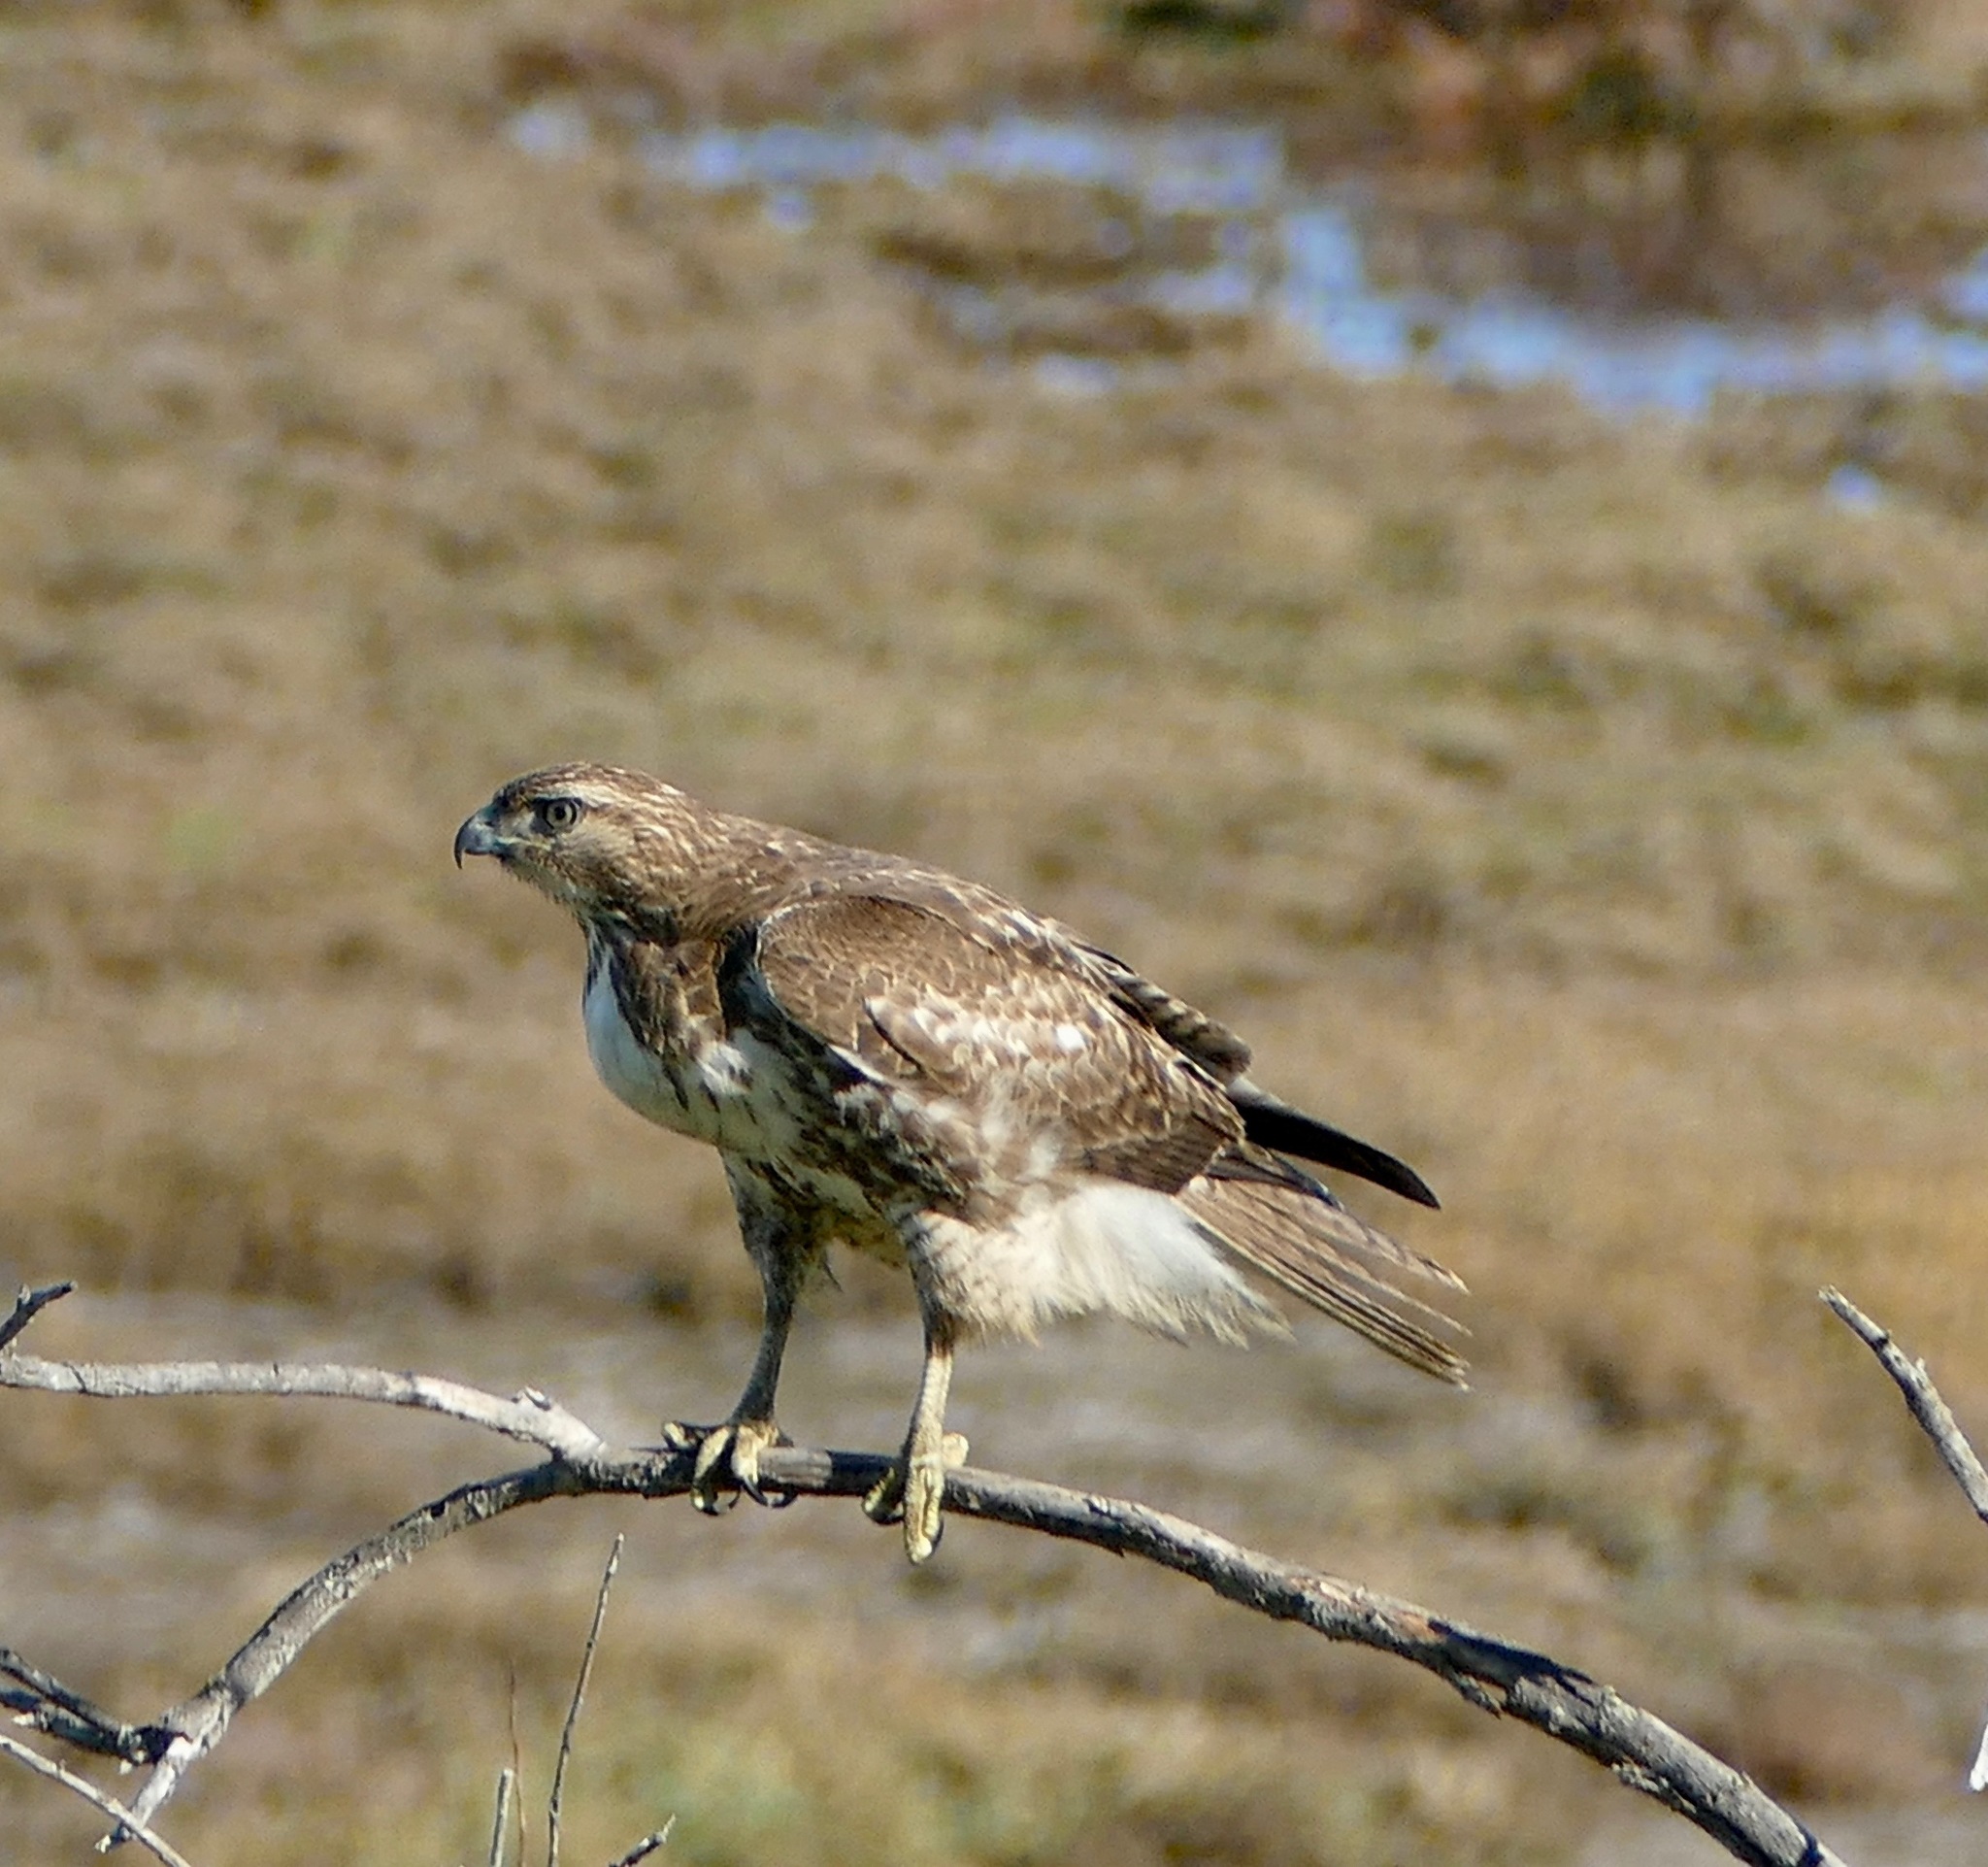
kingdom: Animalia
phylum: Chordata
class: Aves
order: Accipitriformes
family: Accipitridae
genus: Buteo
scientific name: Buteo jamaicensis
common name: Red-tailed hawk
